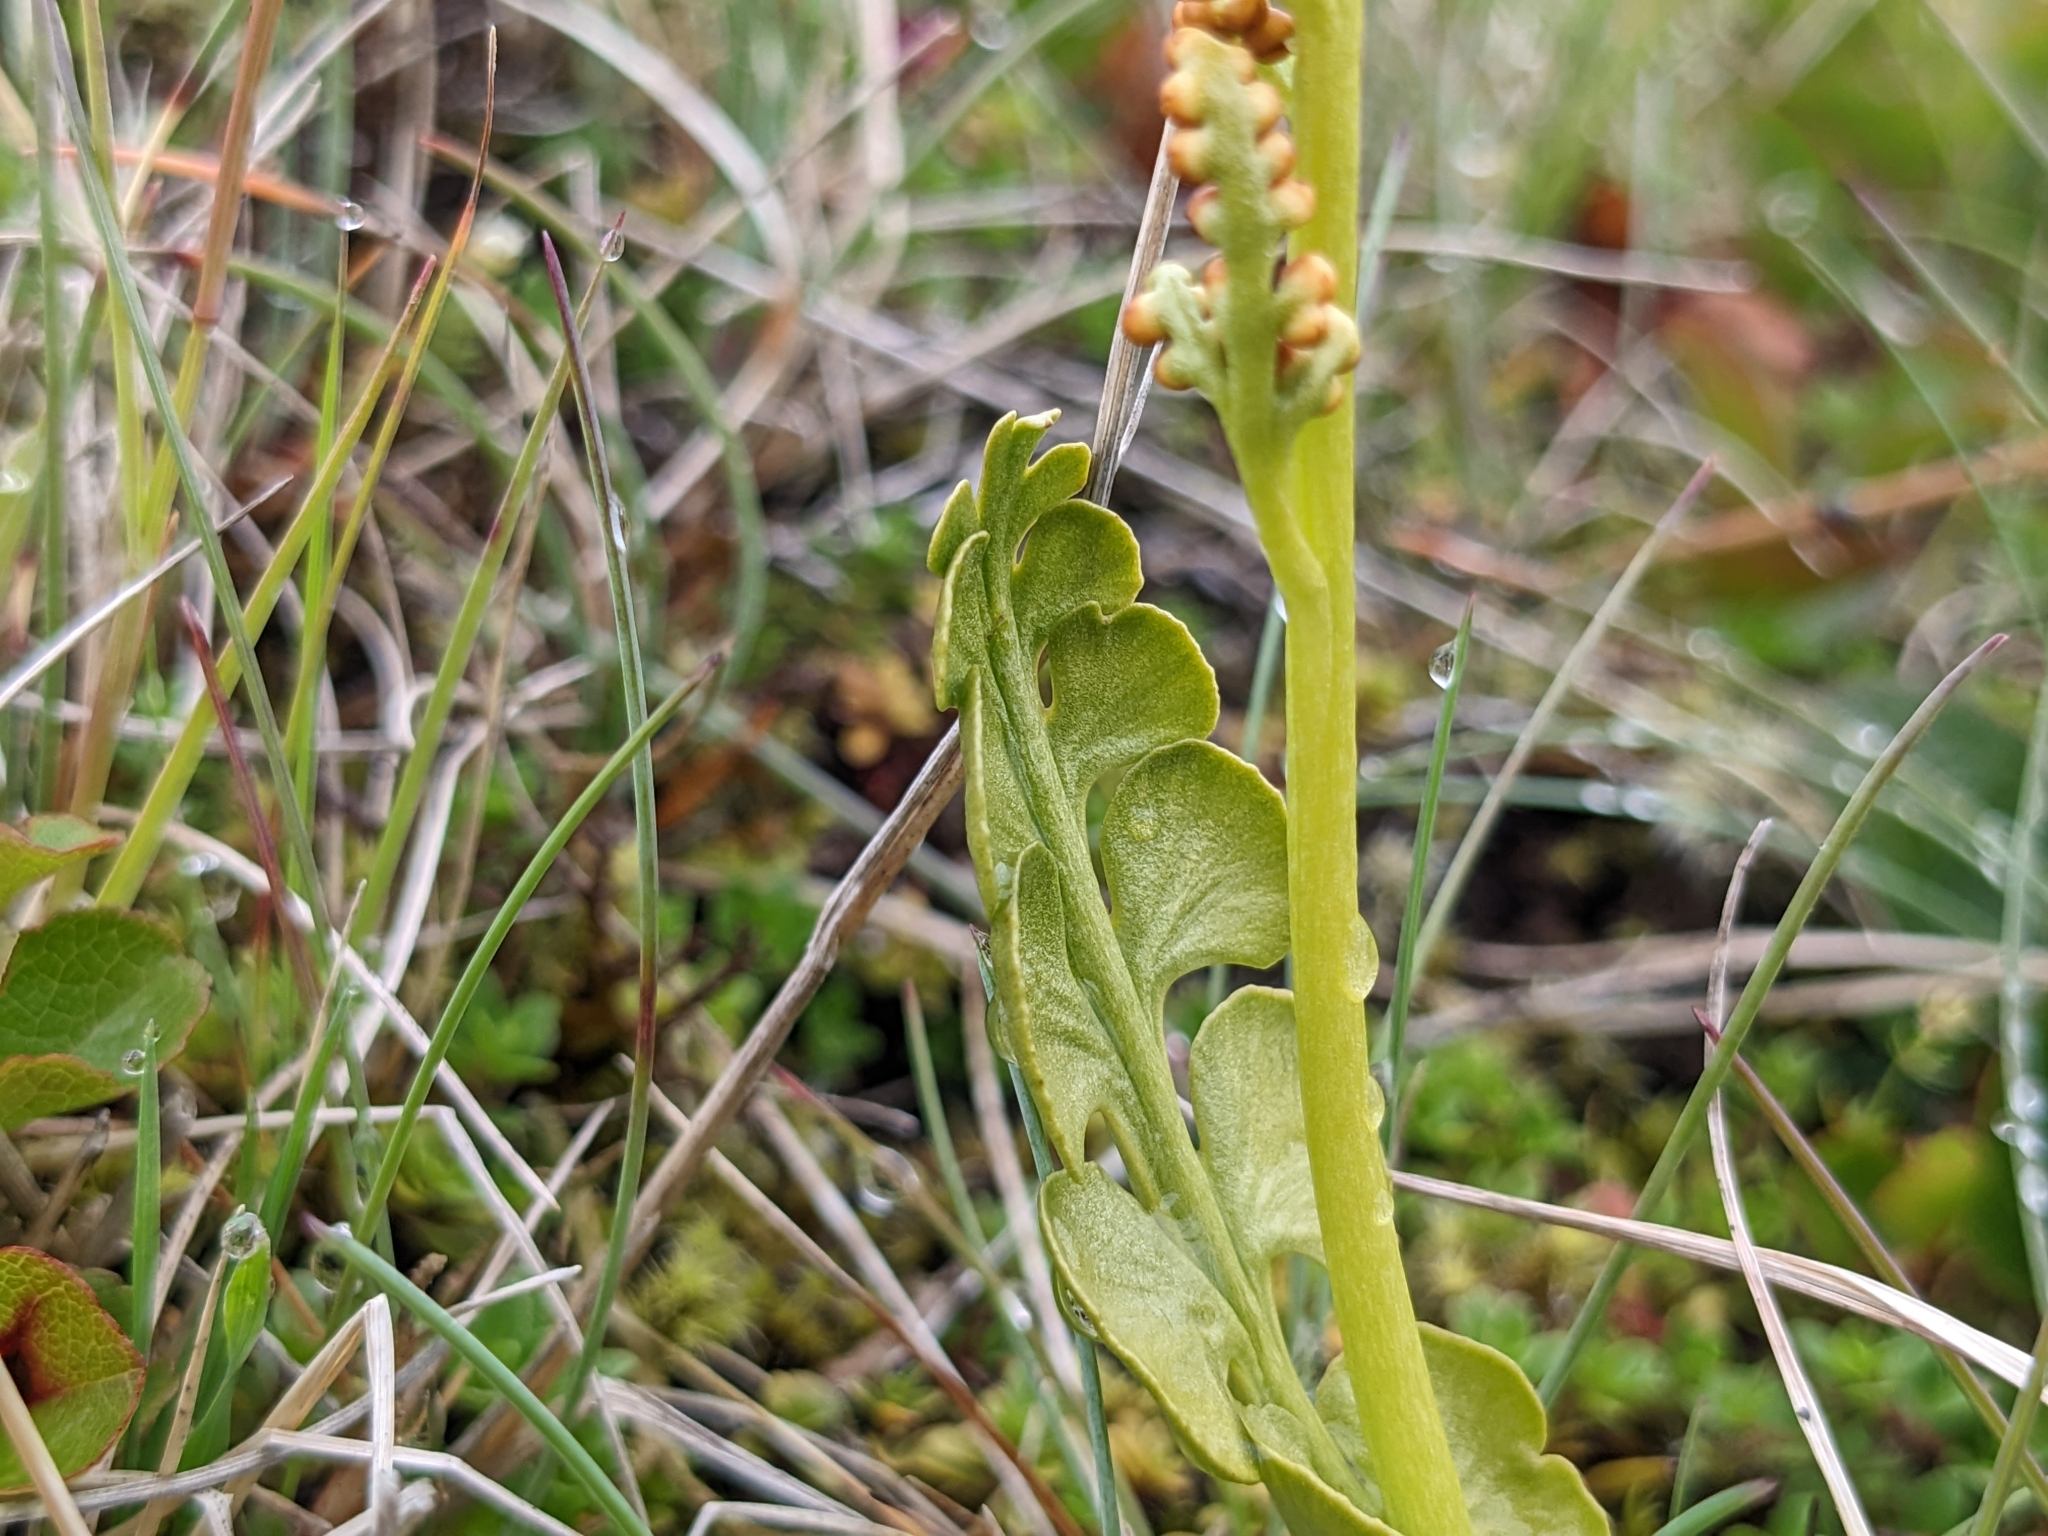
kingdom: Plantae
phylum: Tracheophyta
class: Polypodiopsida
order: Ophioglossales
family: Ophioglossaceae
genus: Botrychium
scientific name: Botrychium lunaria
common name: Moonwort
